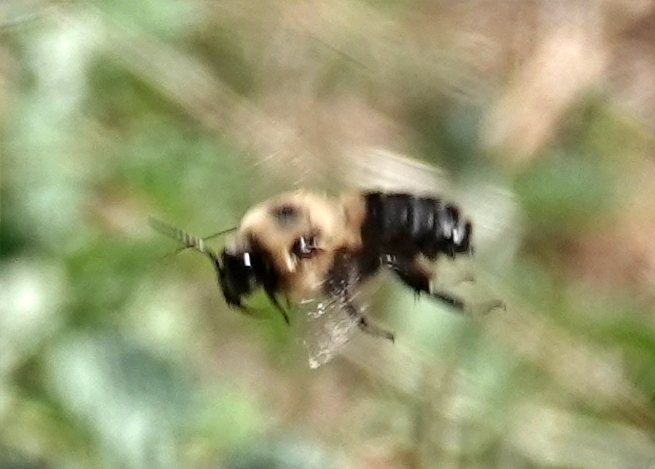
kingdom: Animalia
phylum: Arthropoda
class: Insecta
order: Hymenoptera
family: Apidae
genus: Bombus
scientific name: Bombus griseocollis
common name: Brown-belted bumble bee
